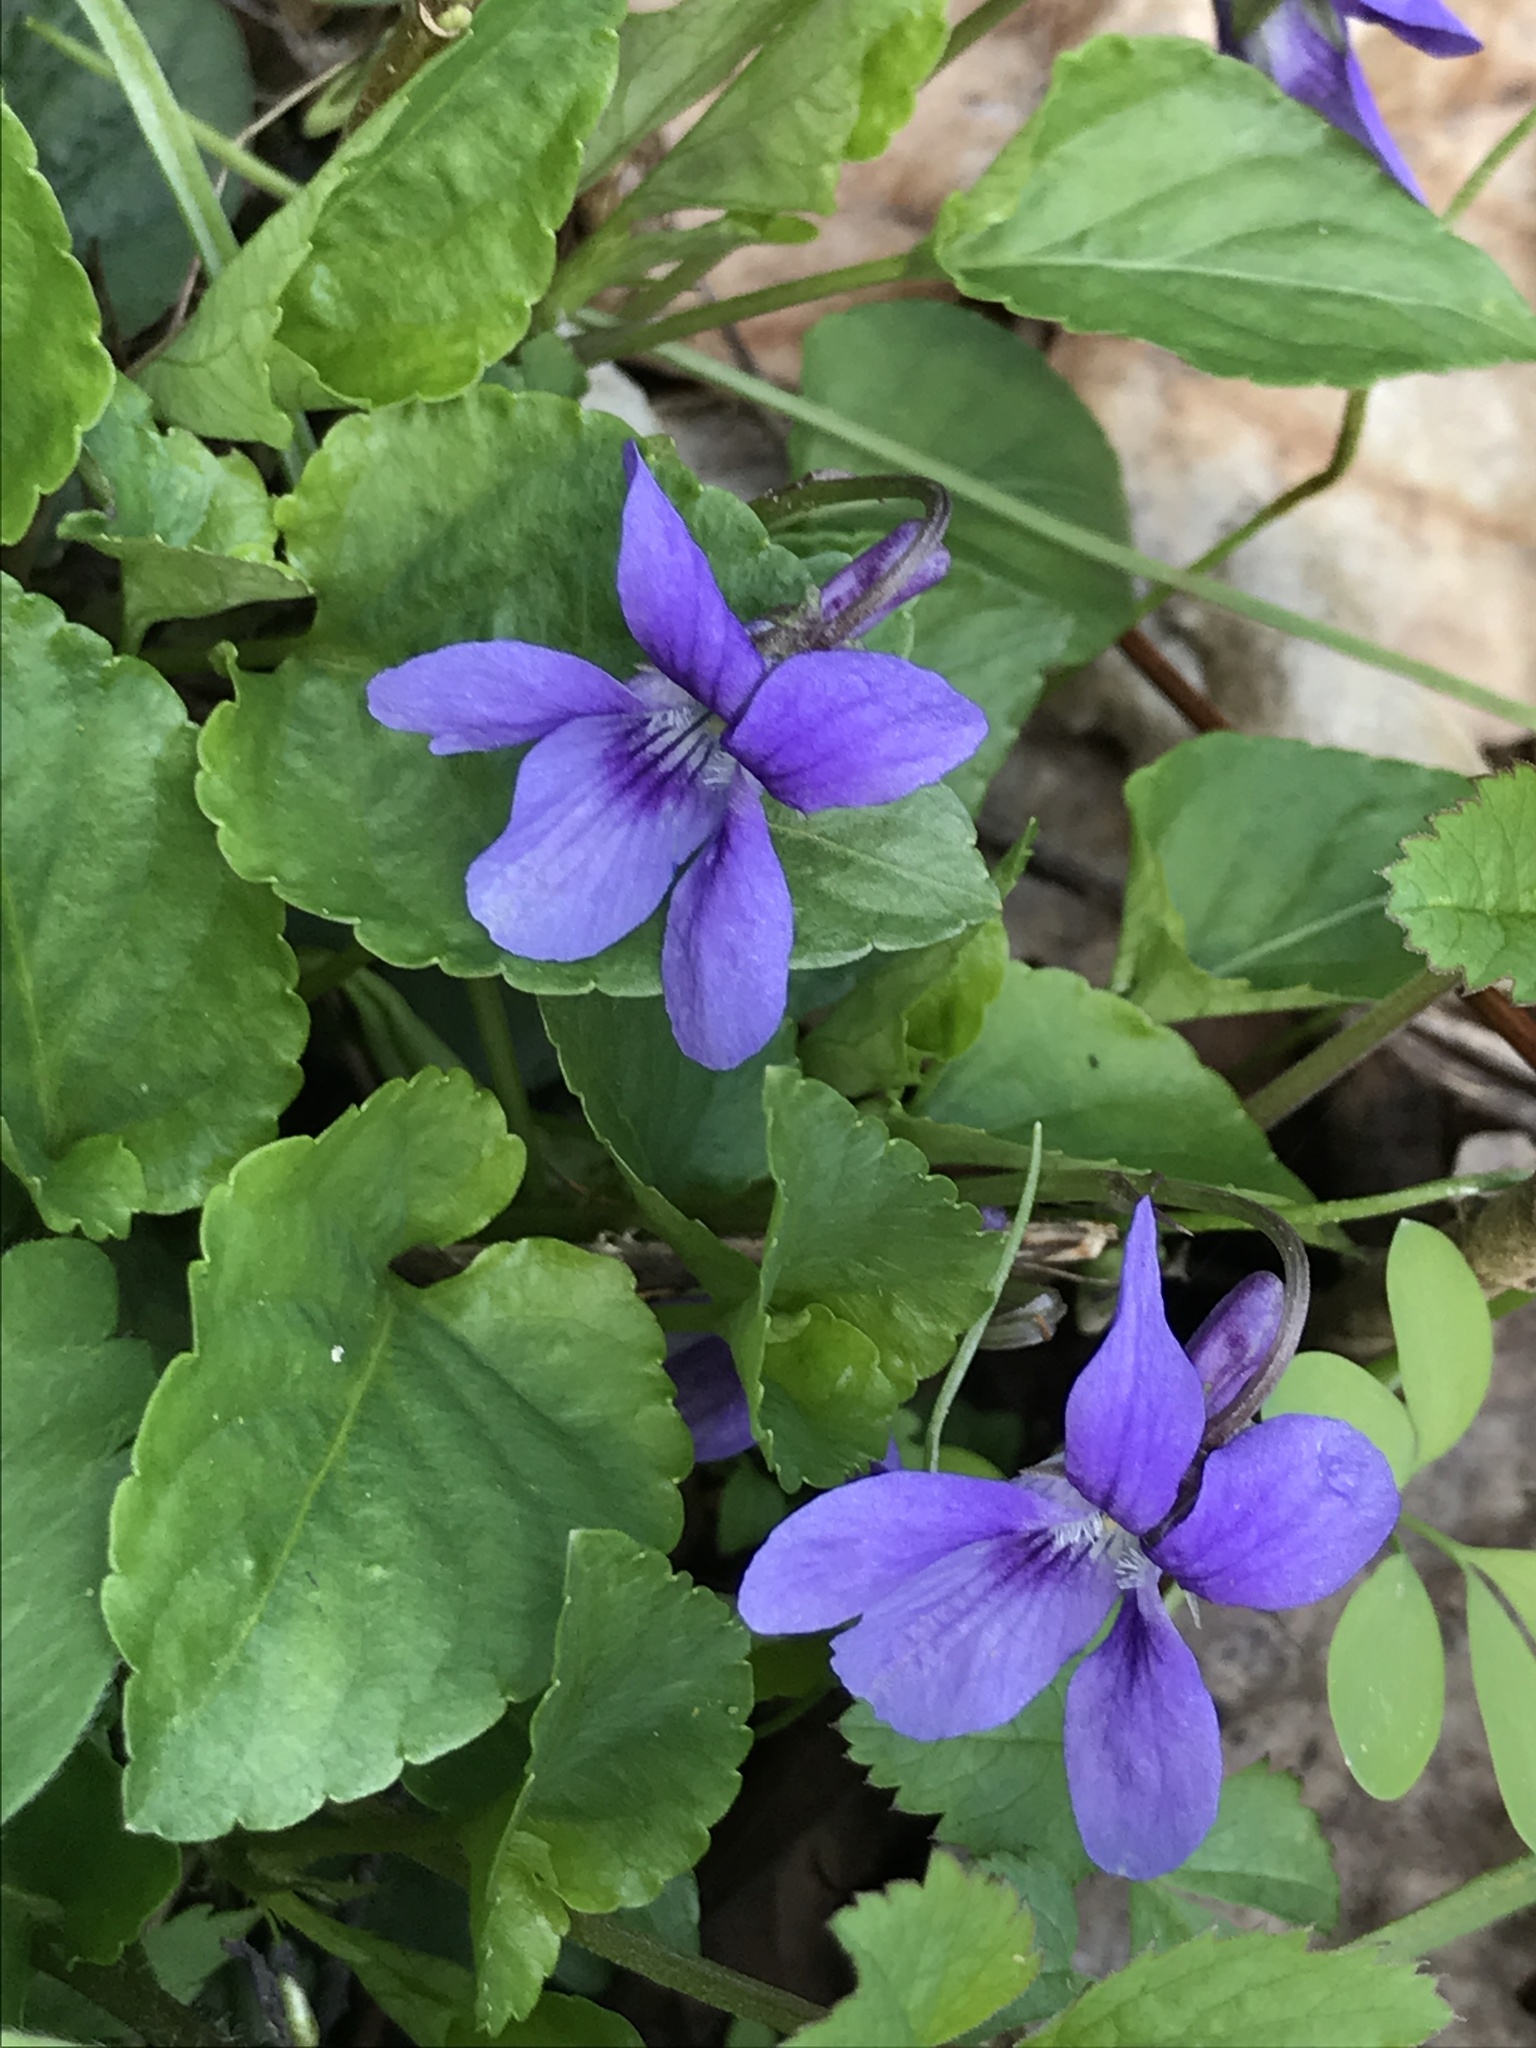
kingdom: Plantae
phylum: Tracheophyta
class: Magnoliopsida
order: Malpighiales
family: Violaceae
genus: Viola
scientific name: Viola reichenbachiana
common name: Early dog-violet
